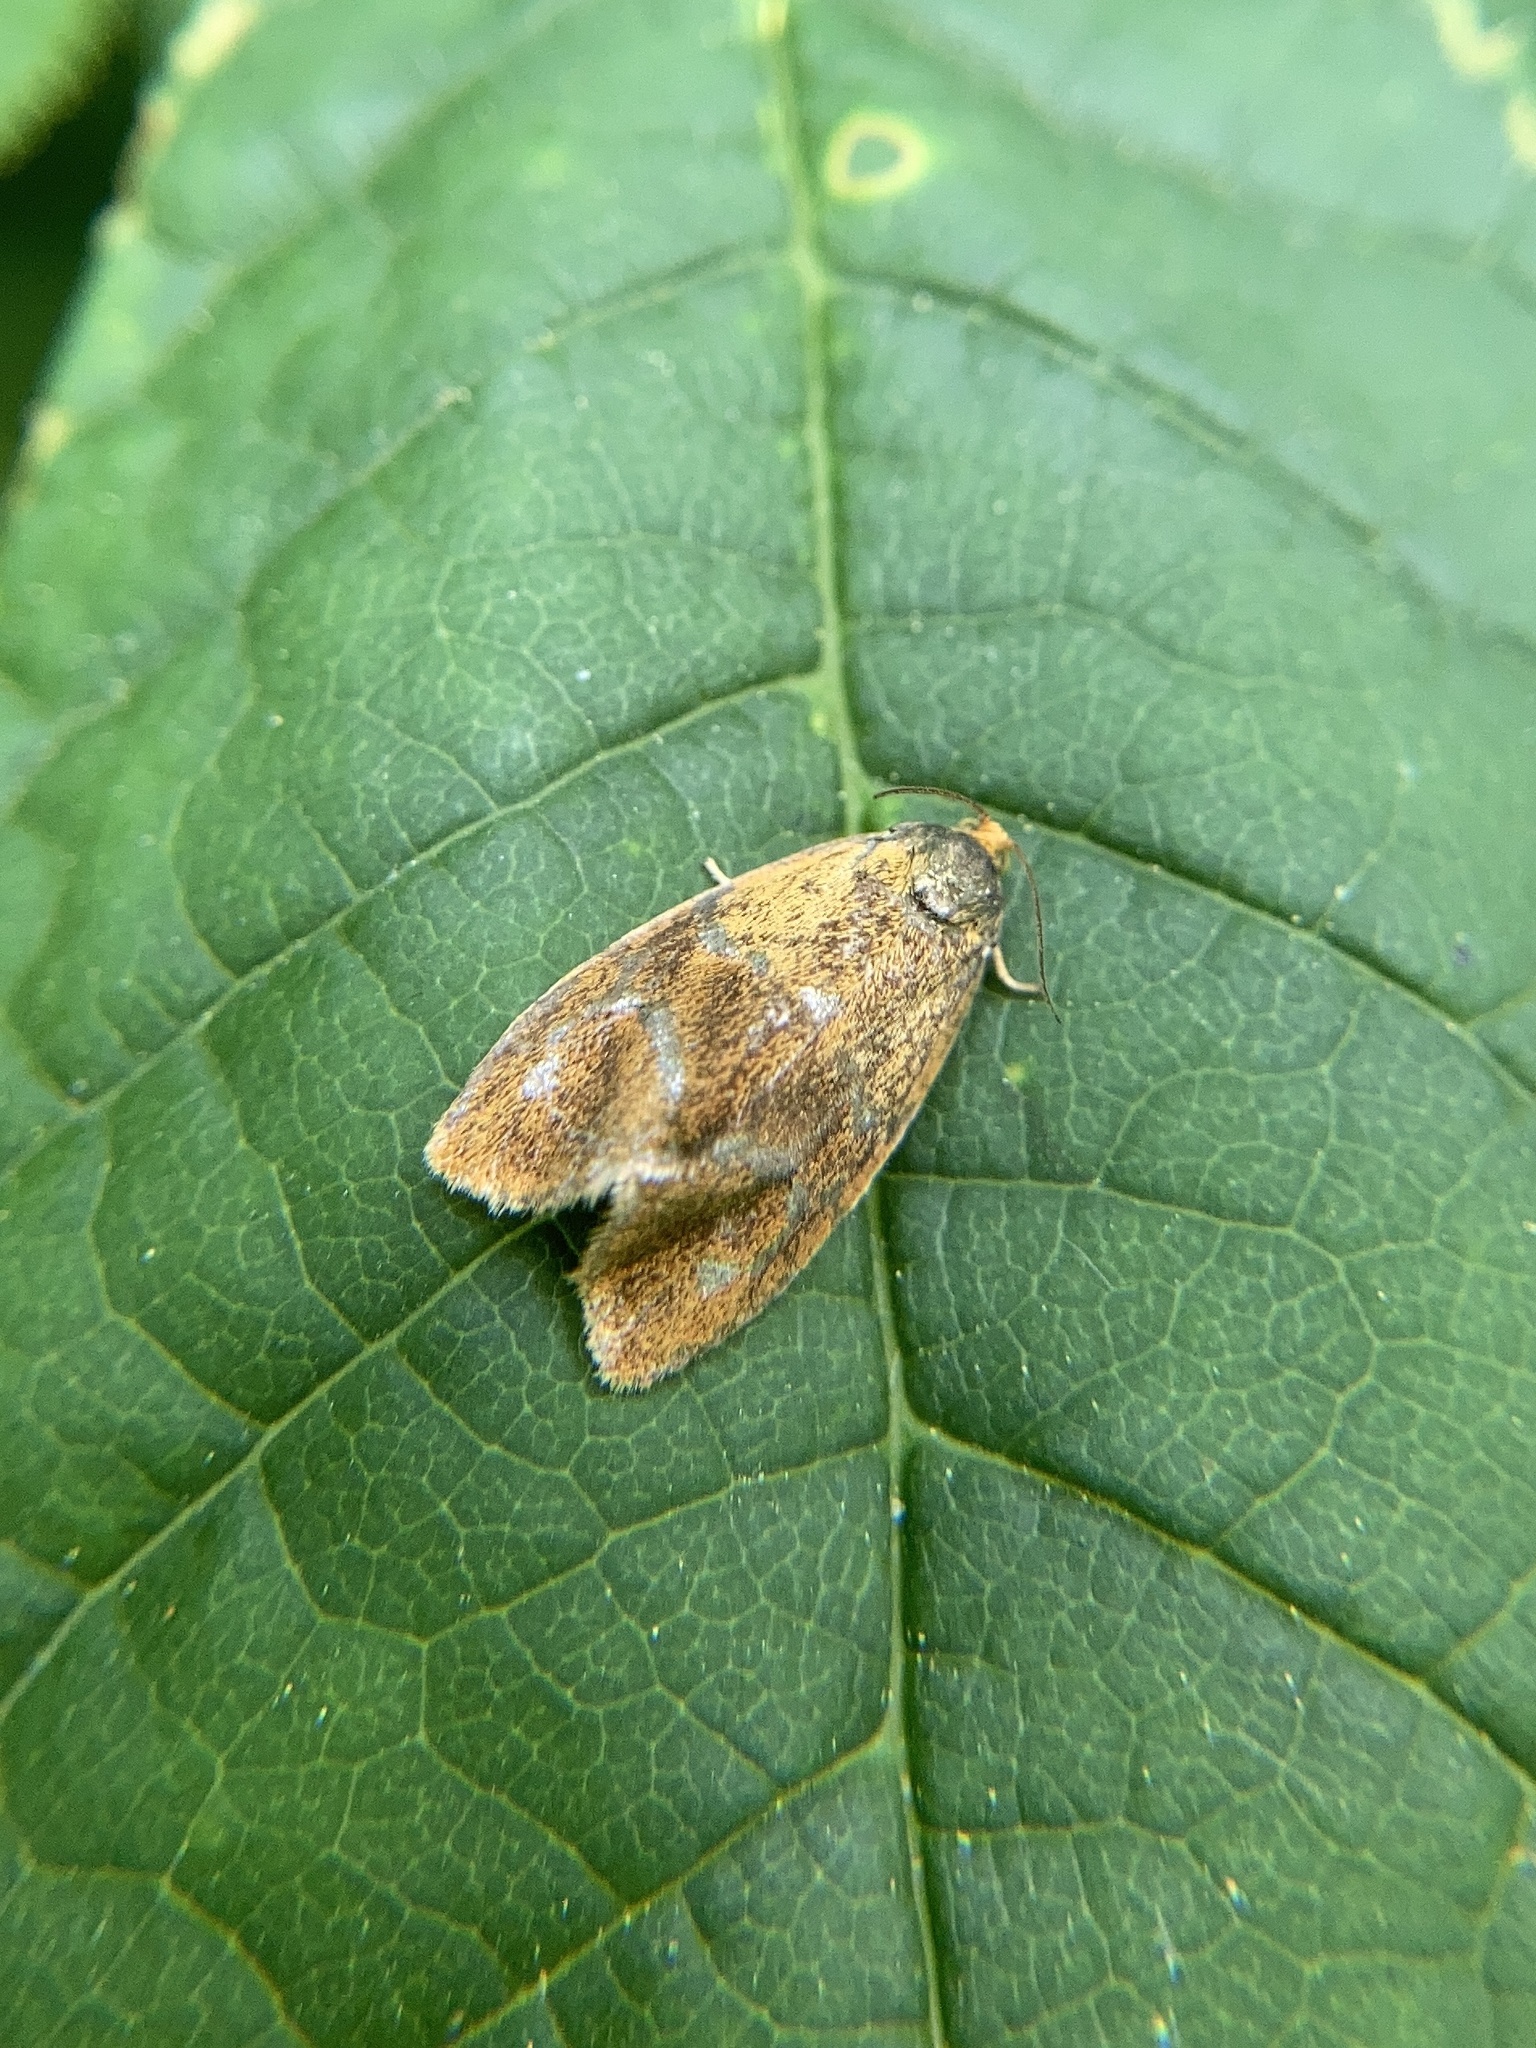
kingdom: Animalia
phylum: Arthropoda
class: Insecta
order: Lepidoptera
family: Tortricidae
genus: Ptycholoma
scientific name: Ptycholoma lecheana
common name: Leches twist moth
